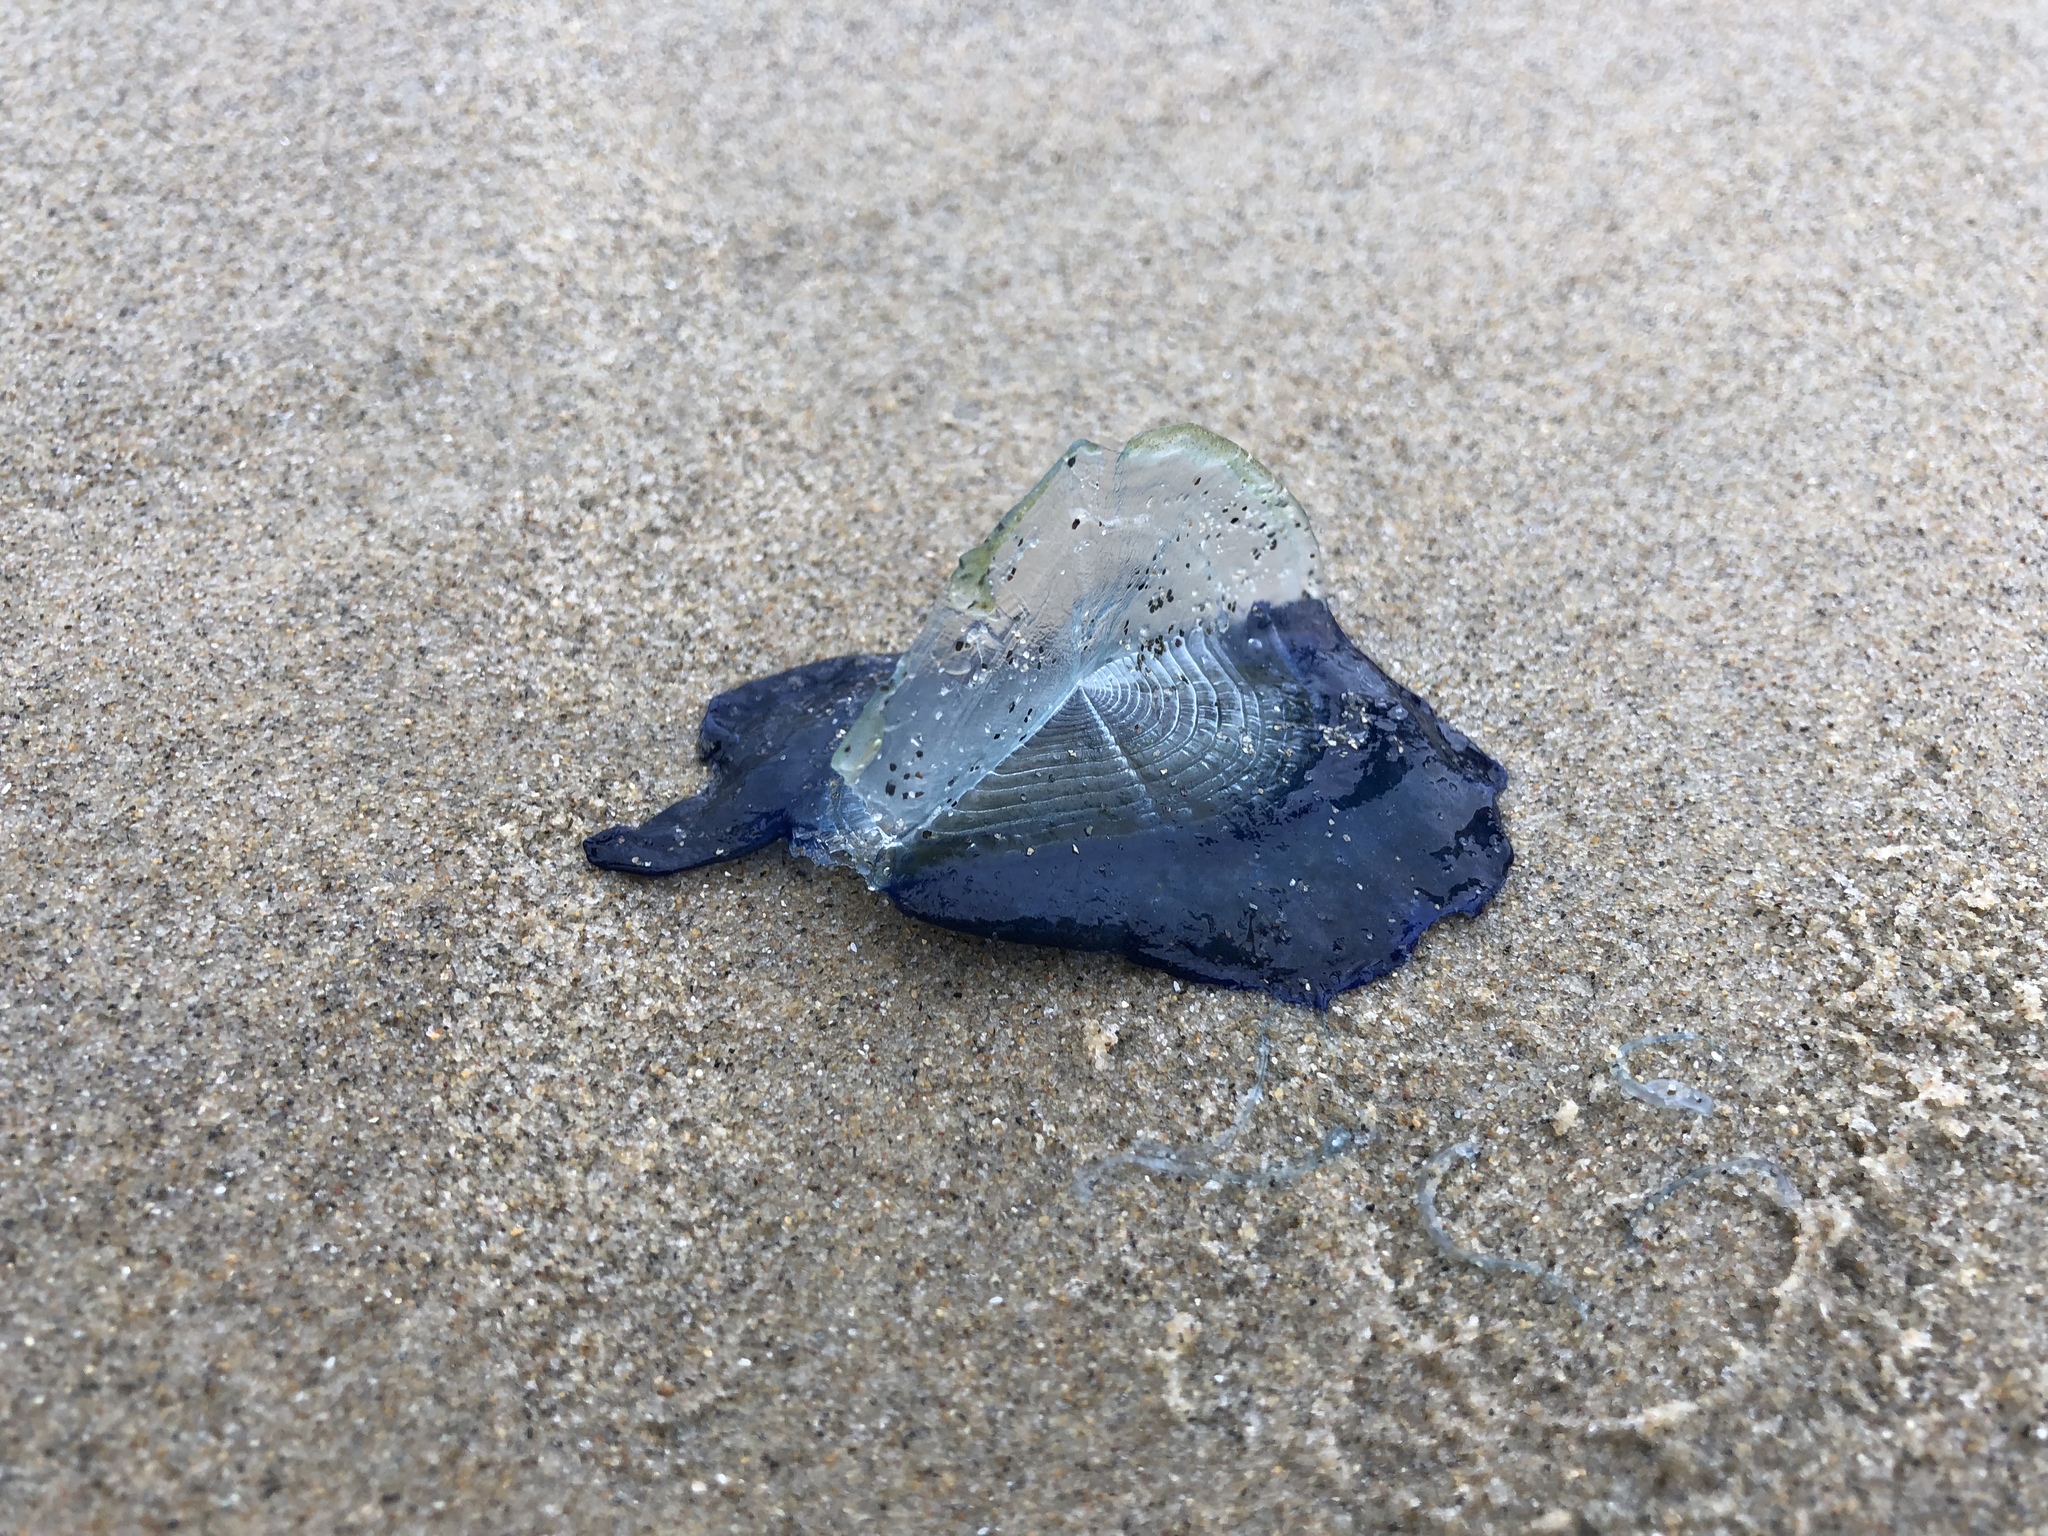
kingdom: Animalia
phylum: Cnidaria
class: Hydrozoa
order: Anthoathecata
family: Porpitidae
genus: Velella
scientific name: Velella velella
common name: By-the-wind-sailor
